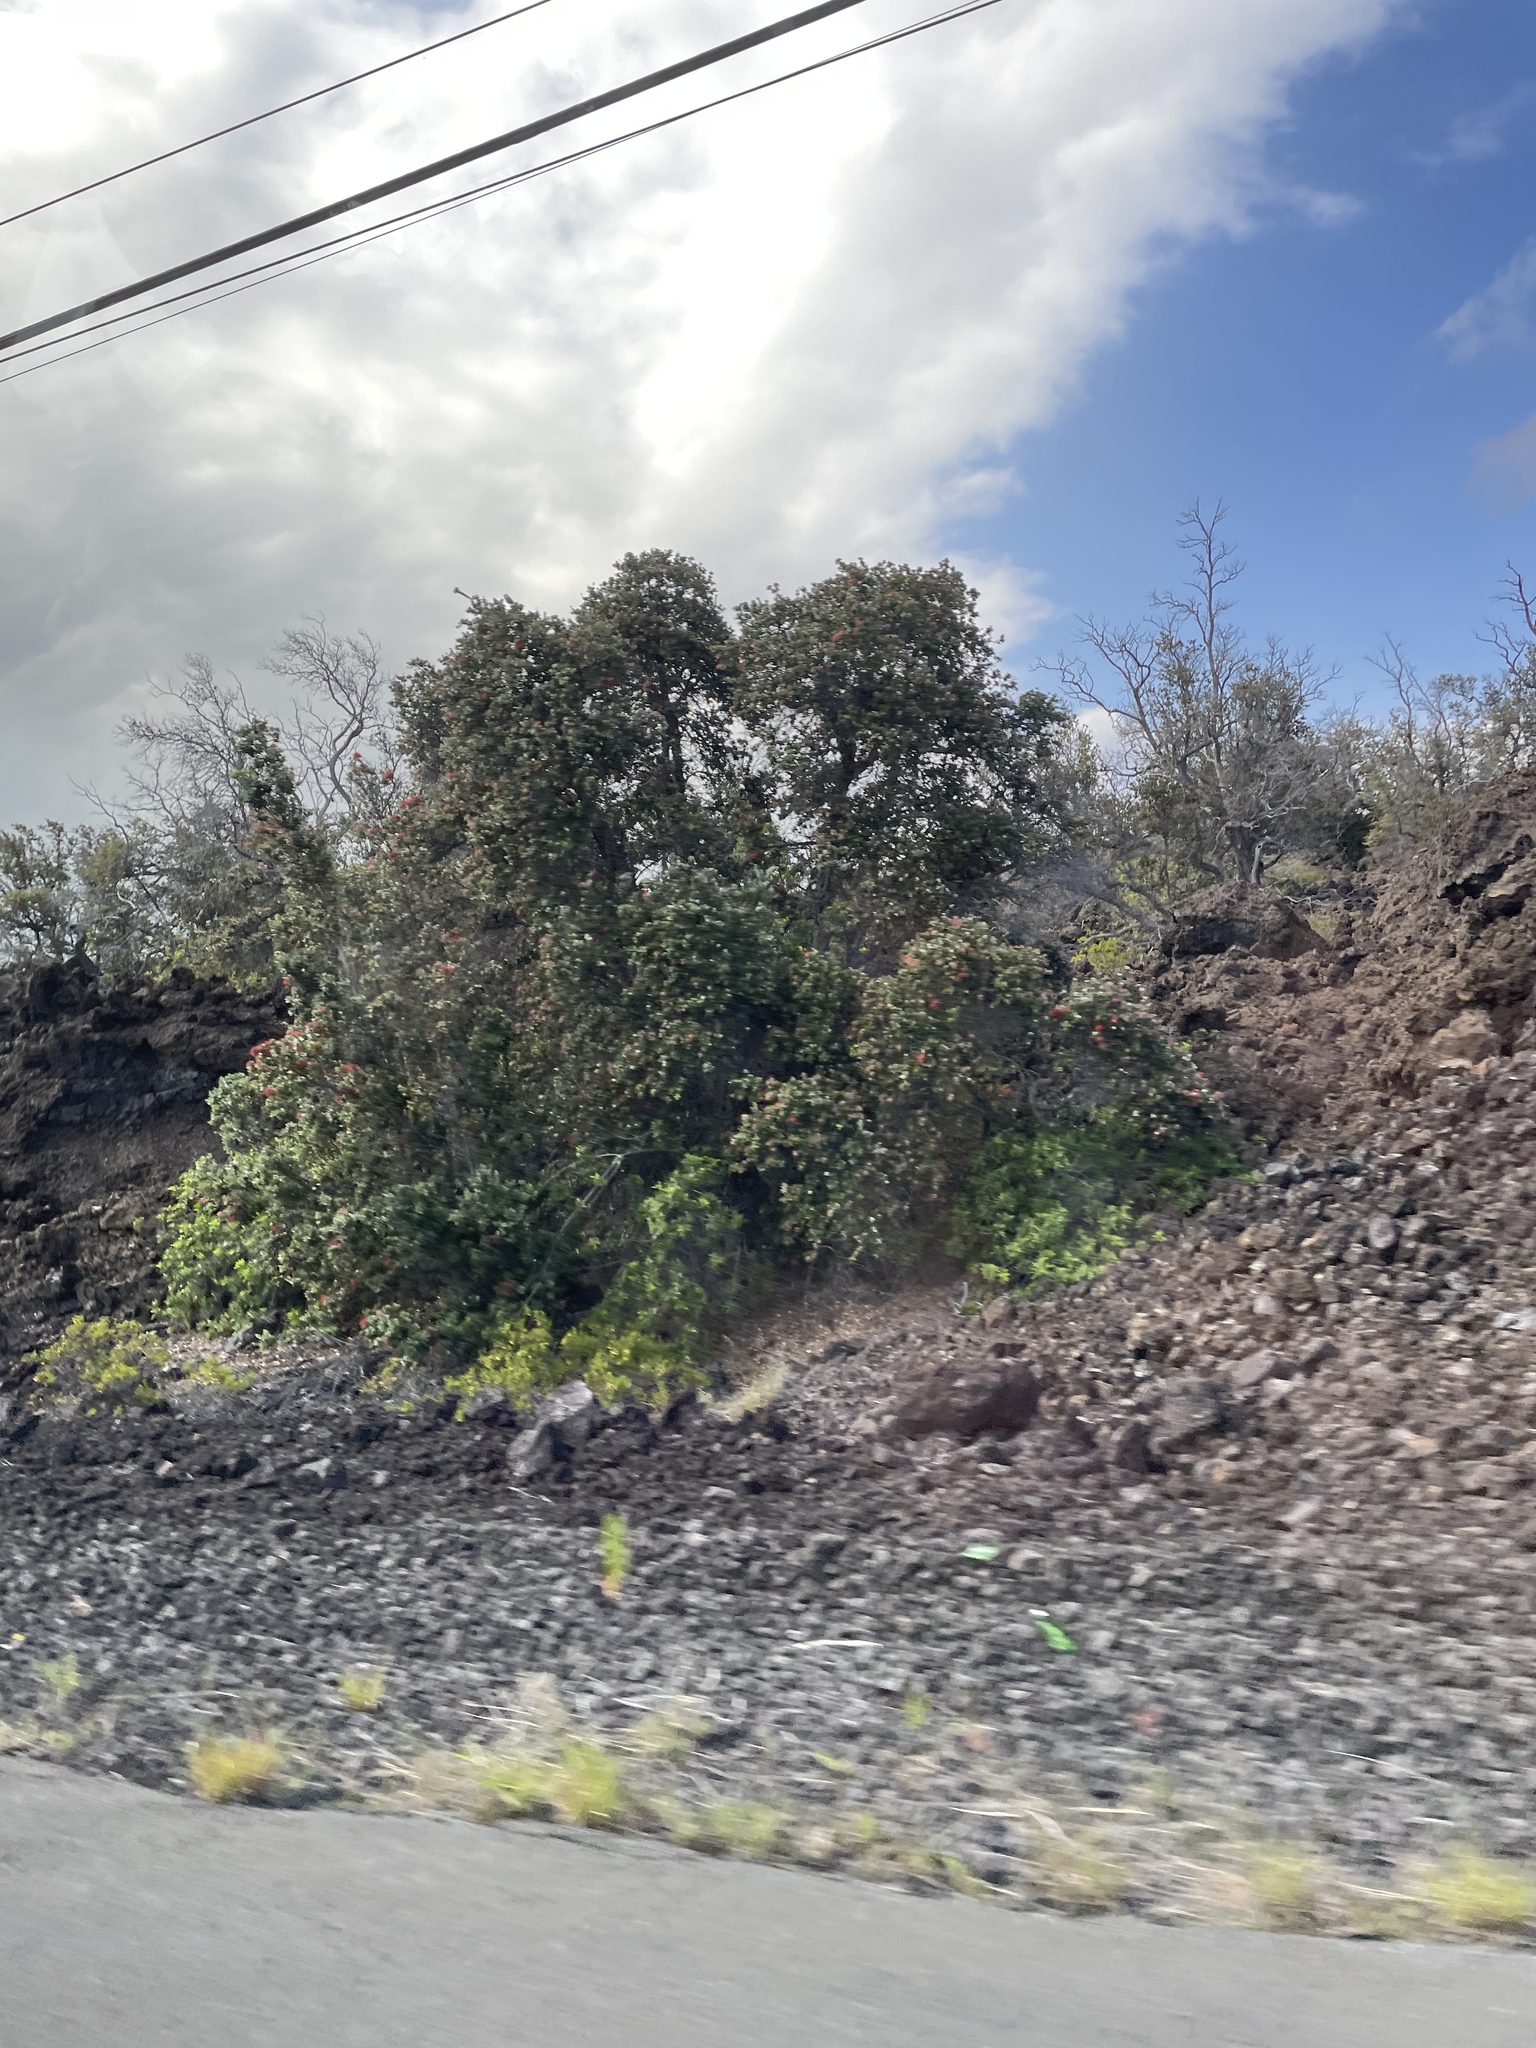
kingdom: Plantae
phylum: Tracheophyta
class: Magnoliopsida
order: Myrtales
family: Myrtaceae
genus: Metrosideros
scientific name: Metrosideros polymorpha
